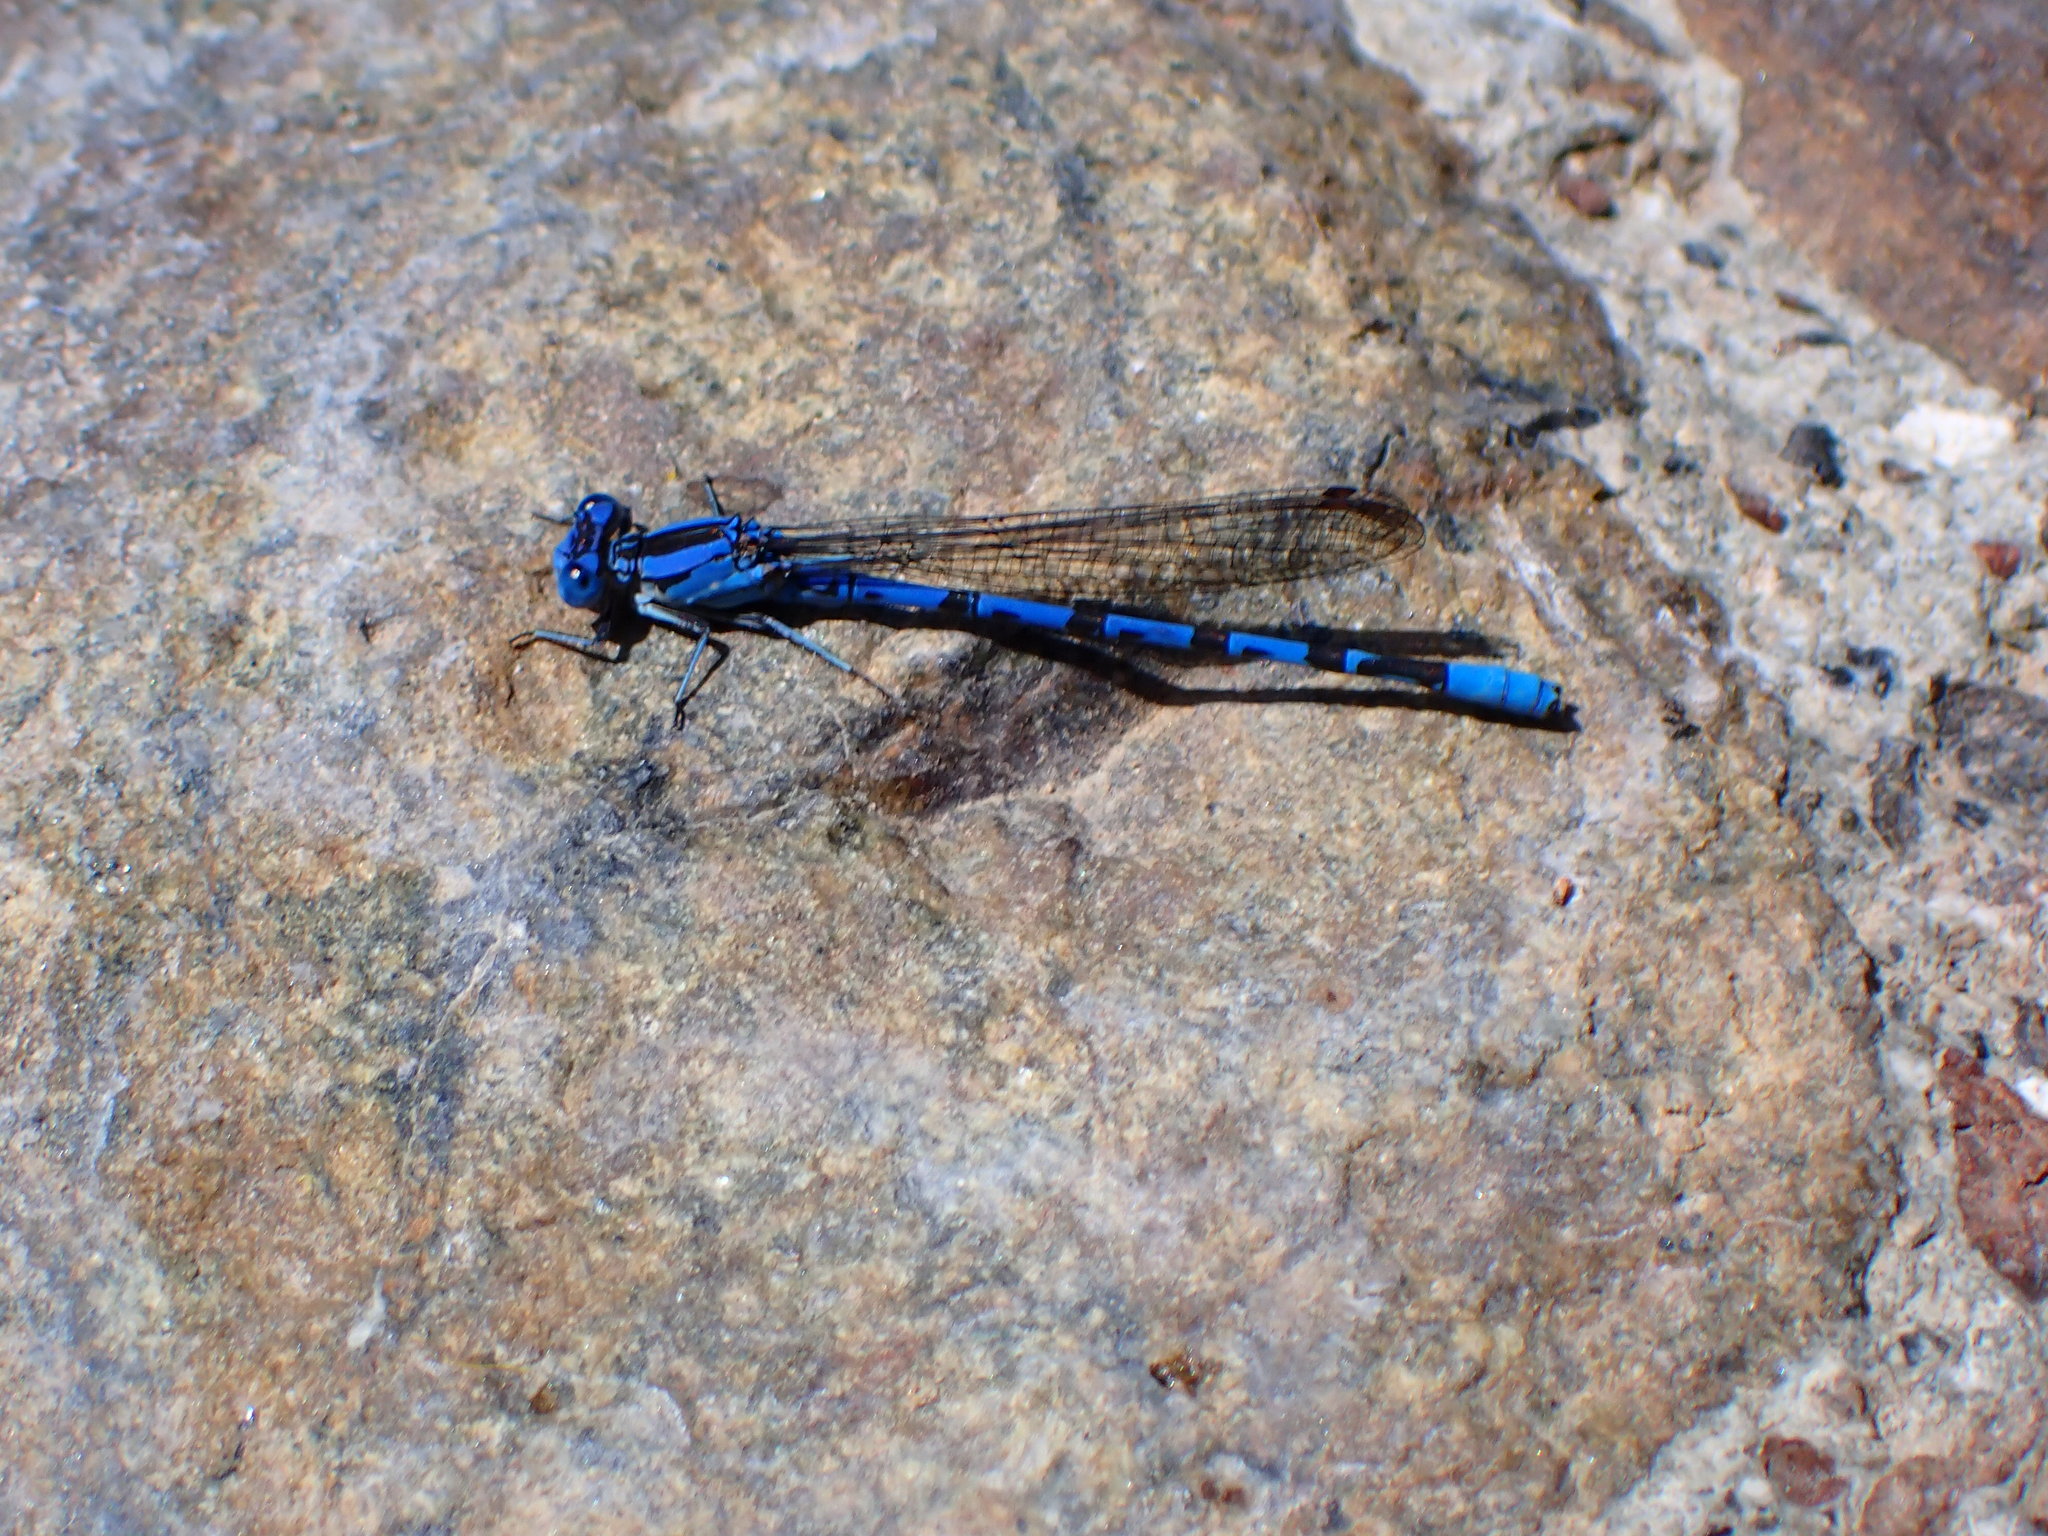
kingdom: Animalia
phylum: Arthropoda
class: Insecta
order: Odonata
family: Coenagrionidae
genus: Argia
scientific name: Argia vivida
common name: Vivid dancer
